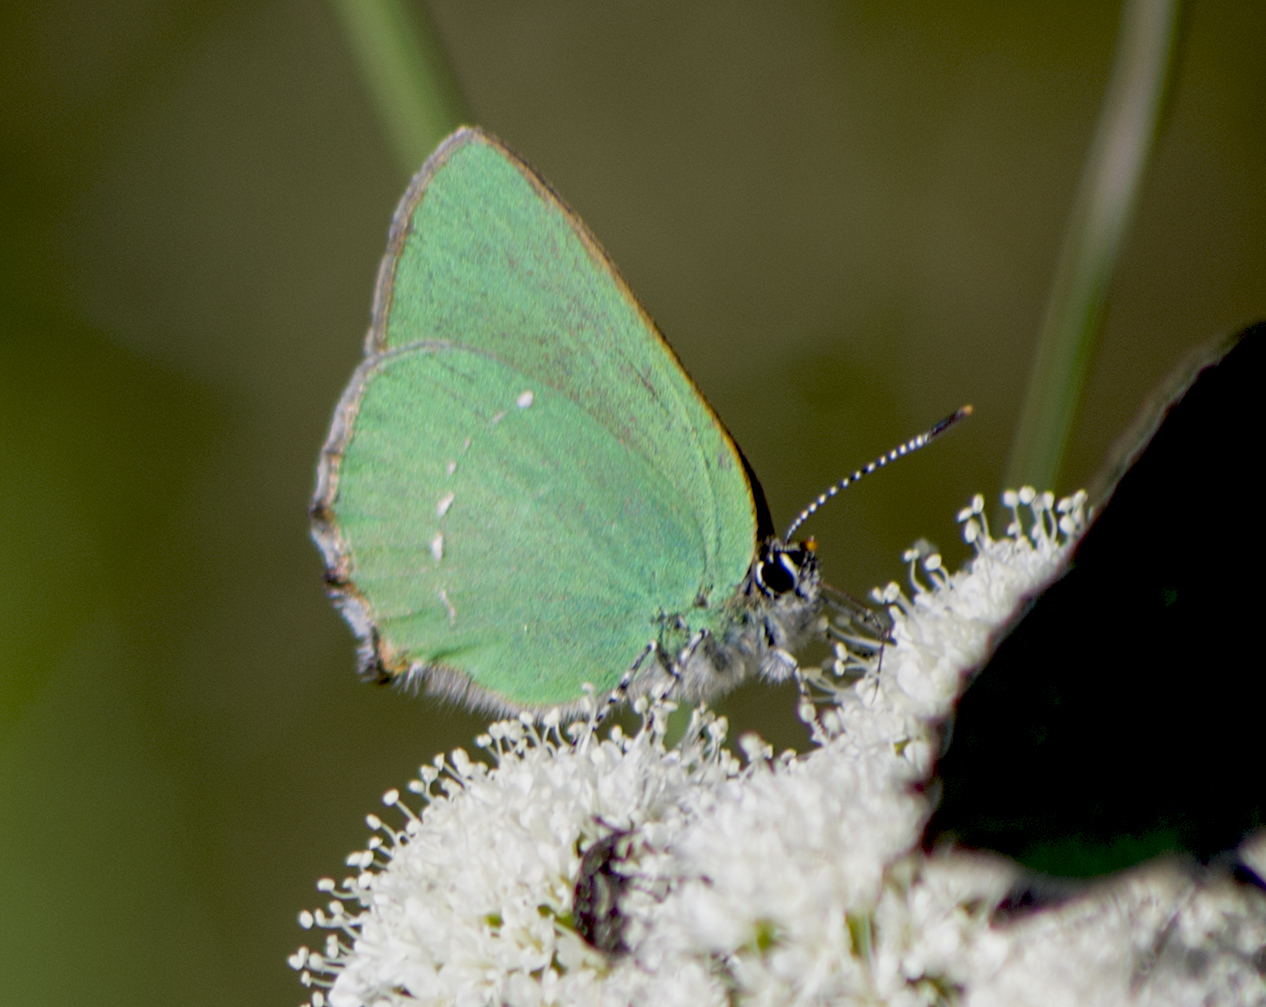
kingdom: Animalia
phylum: Arthropoda
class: Insecta
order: Lepidoptera
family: Lycaenidae
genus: Callophrys
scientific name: Callophrys rubi
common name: Green hairstreak
